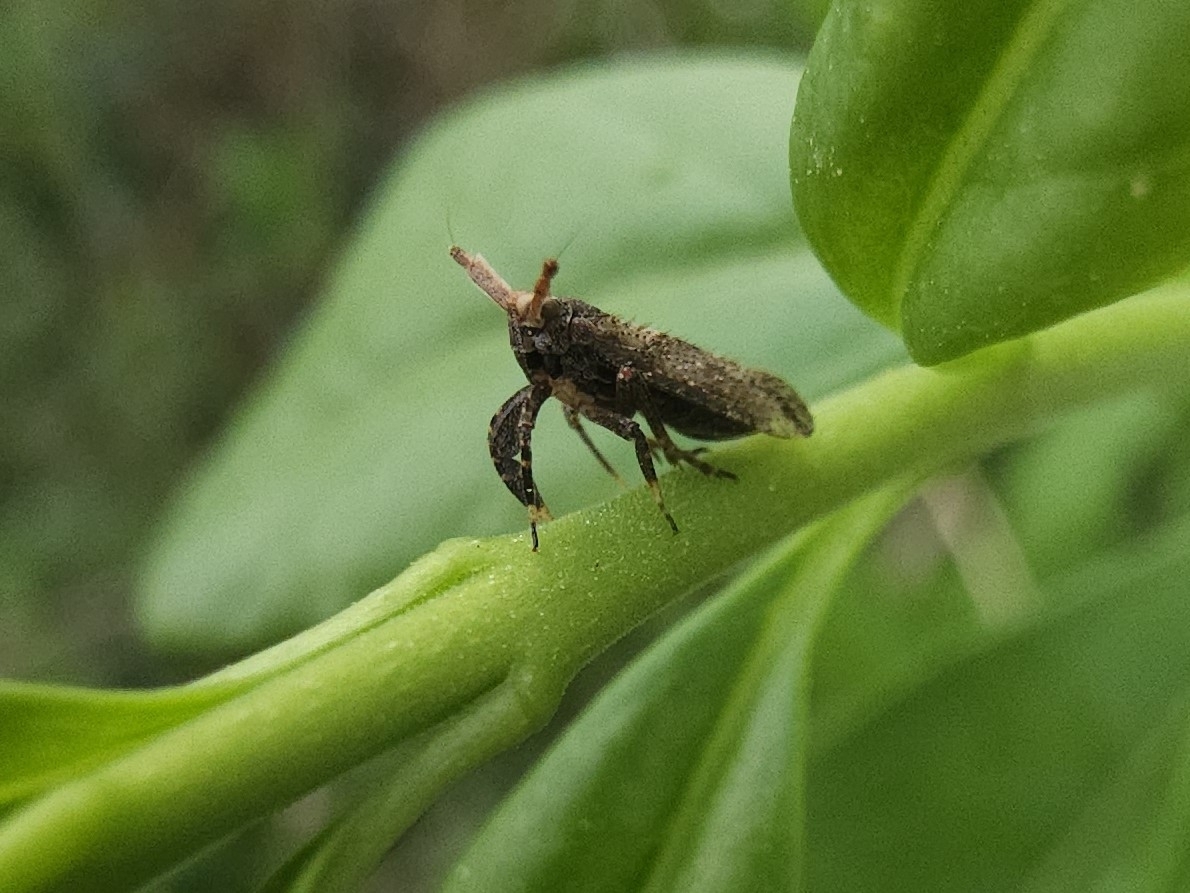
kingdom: Animalia
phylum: Arthropoda
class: Insecta
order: Hemiptera
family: Delphacidae
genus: Asiraca
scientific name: Asiraca clavicornis
